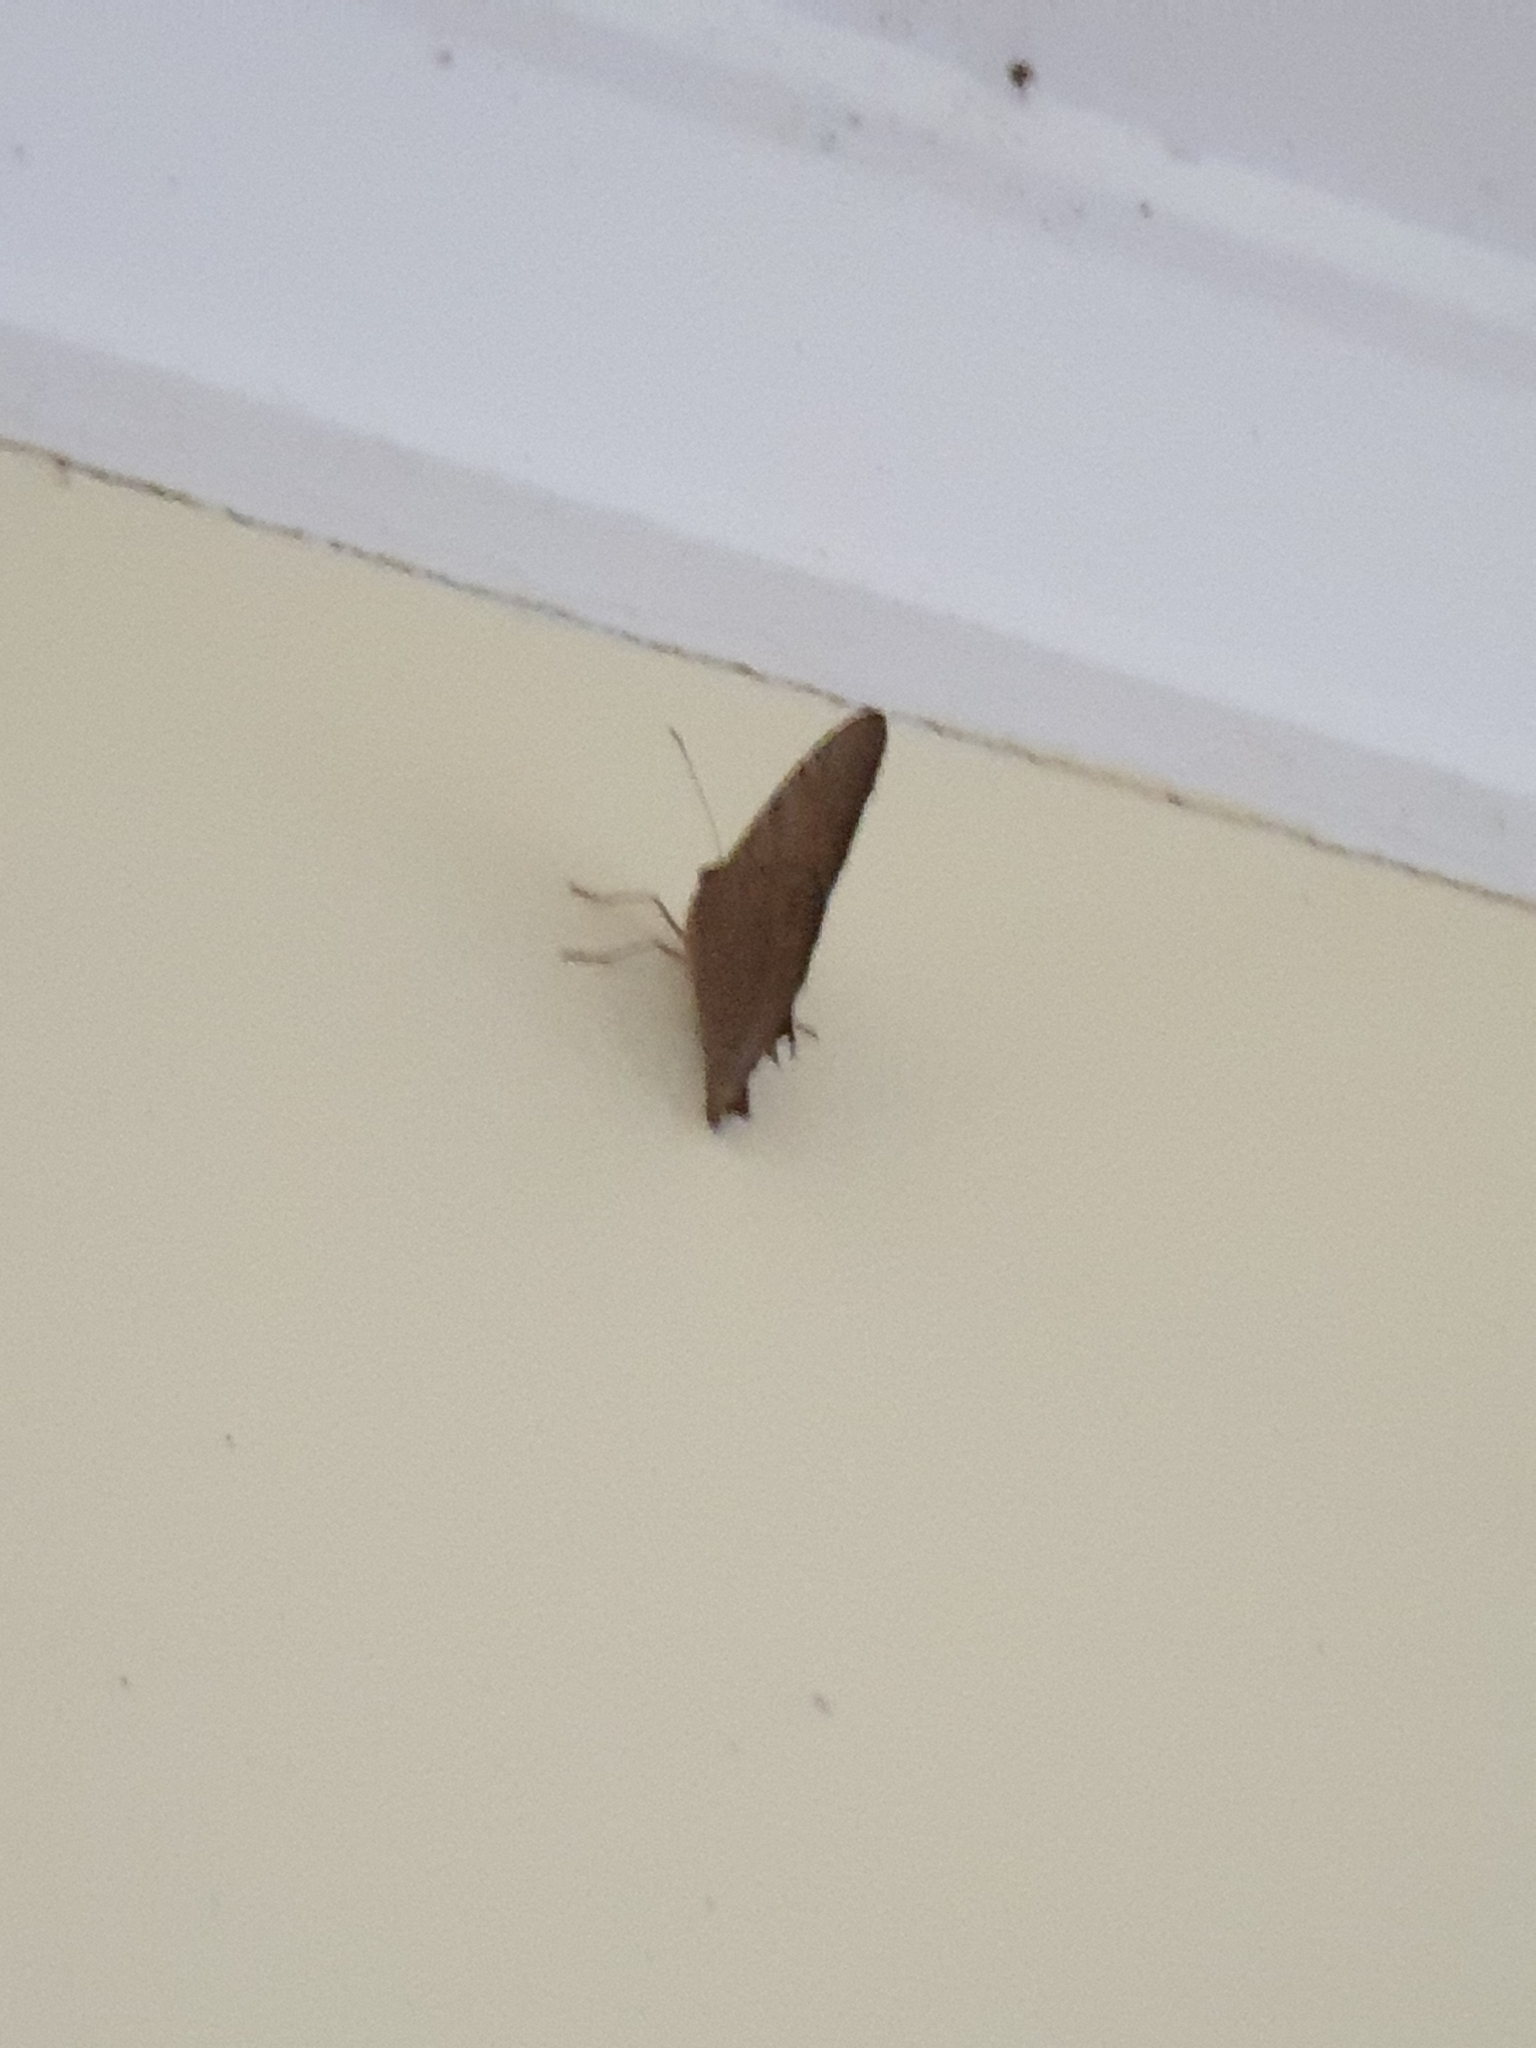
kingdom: Animalia
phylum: Arthropoda
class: Insecta
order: Lepidoptera
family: Nymphalidae
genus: Melanitis
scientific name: Melanitis leda
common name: Twilight brown
